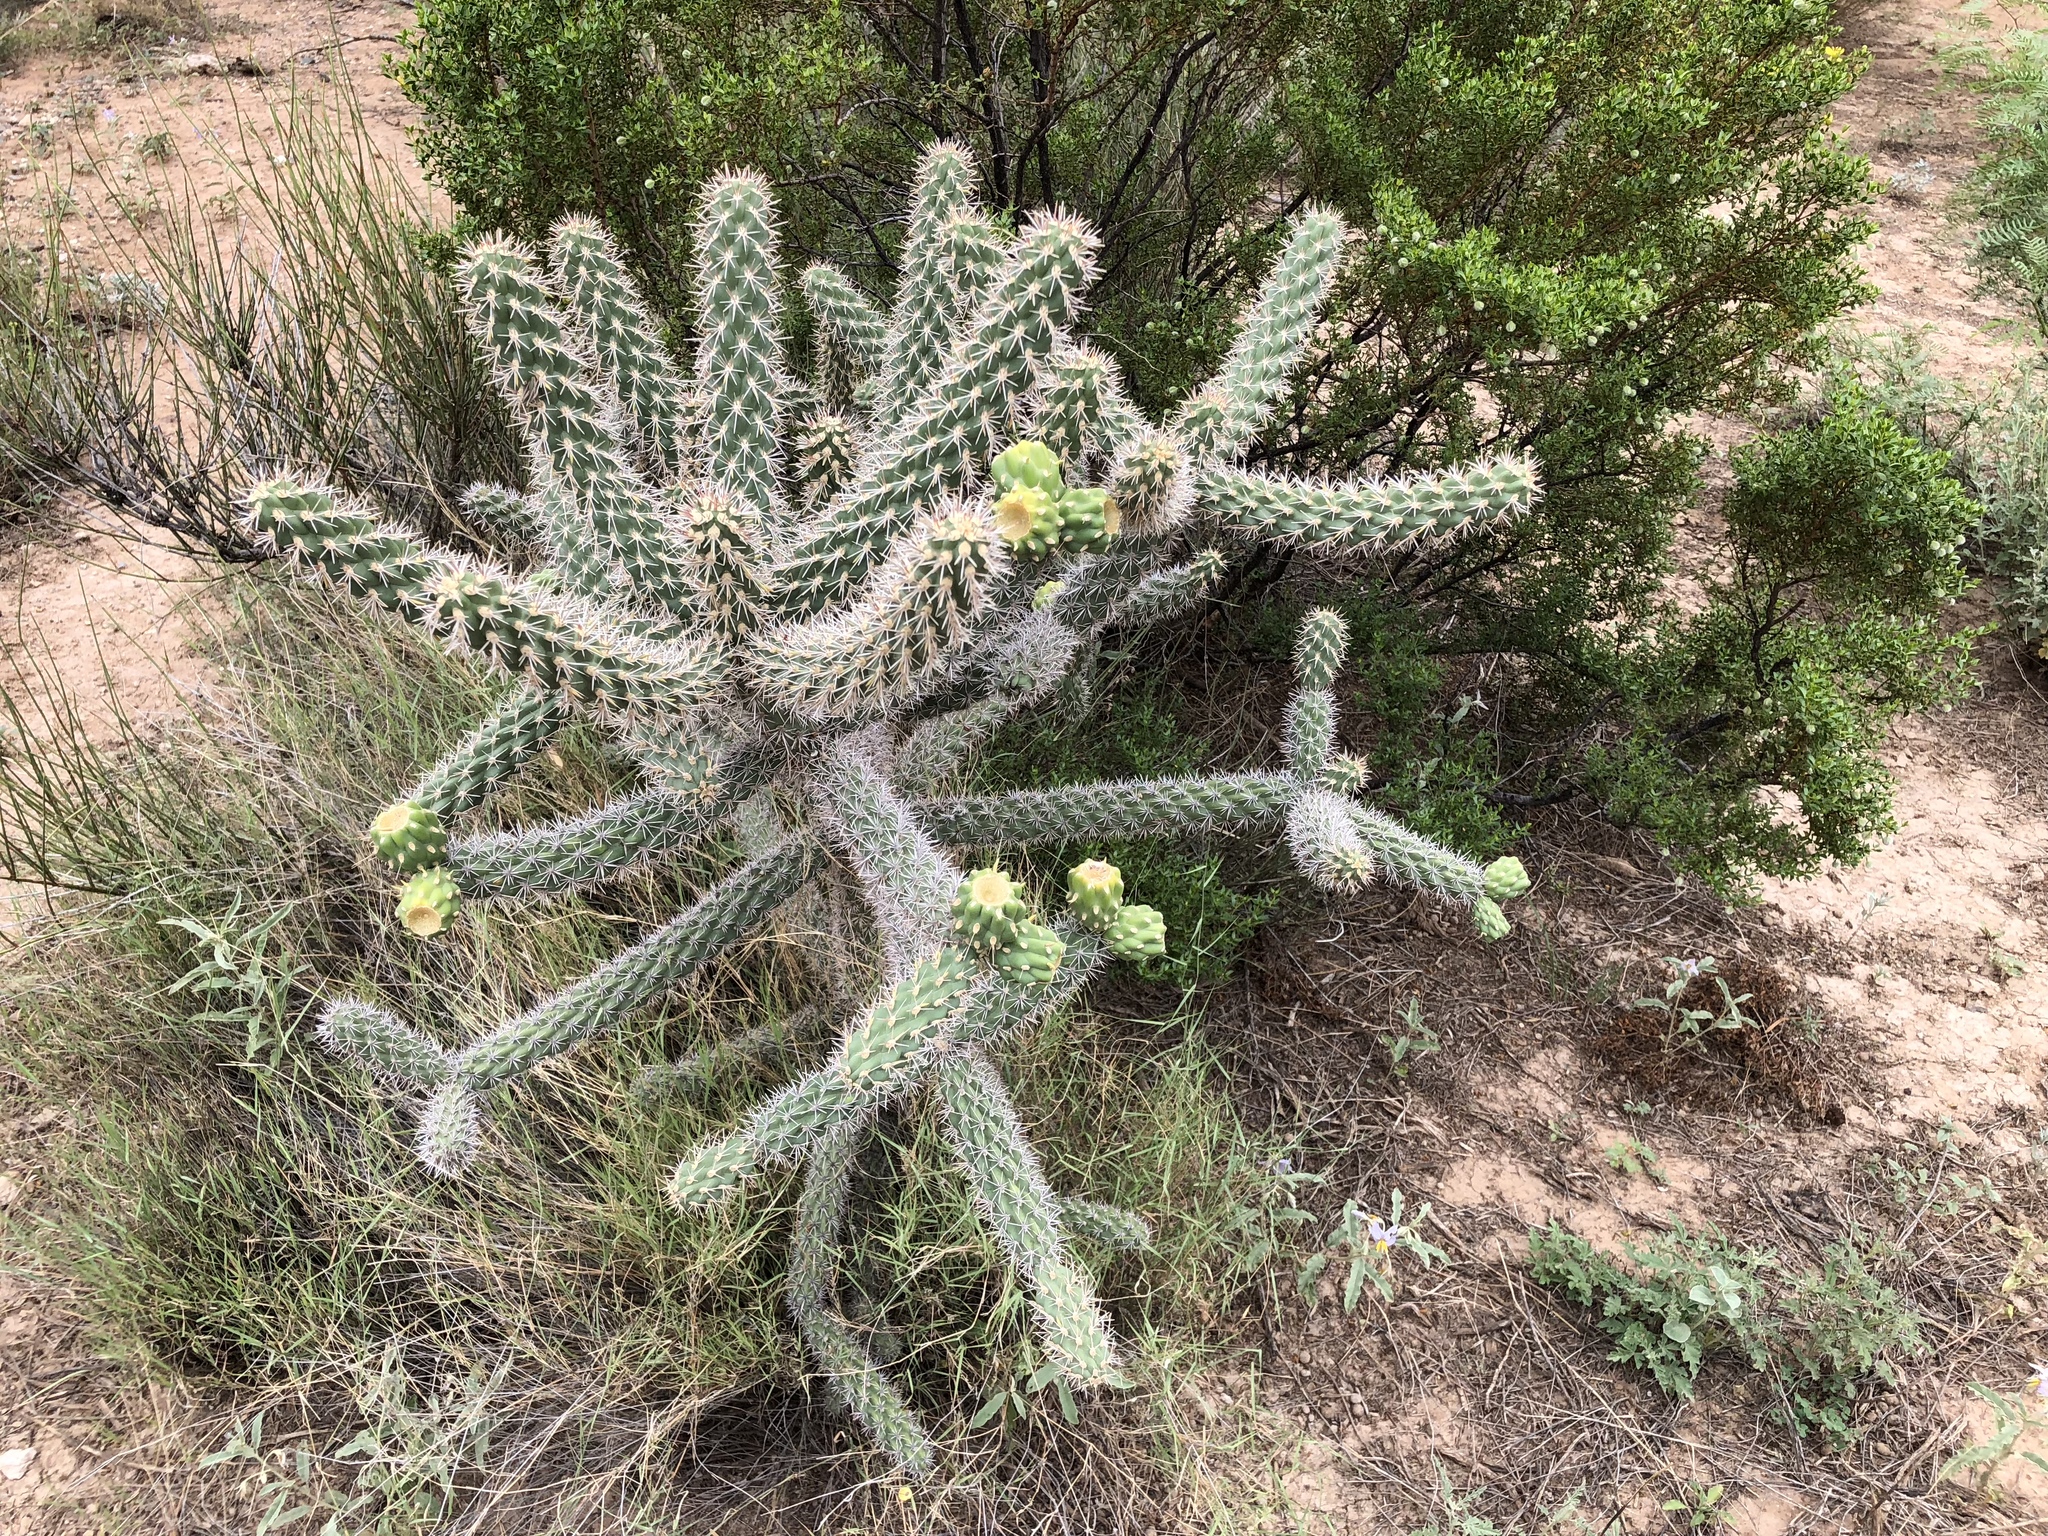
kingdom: Plantae
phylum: Tracheophyta
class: Magnoliopsida
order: Caryophyllales
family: Cactaceae
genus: Cylindropuntia
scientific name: Cylindropuntia imbricata
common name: Candelabrum cactus
